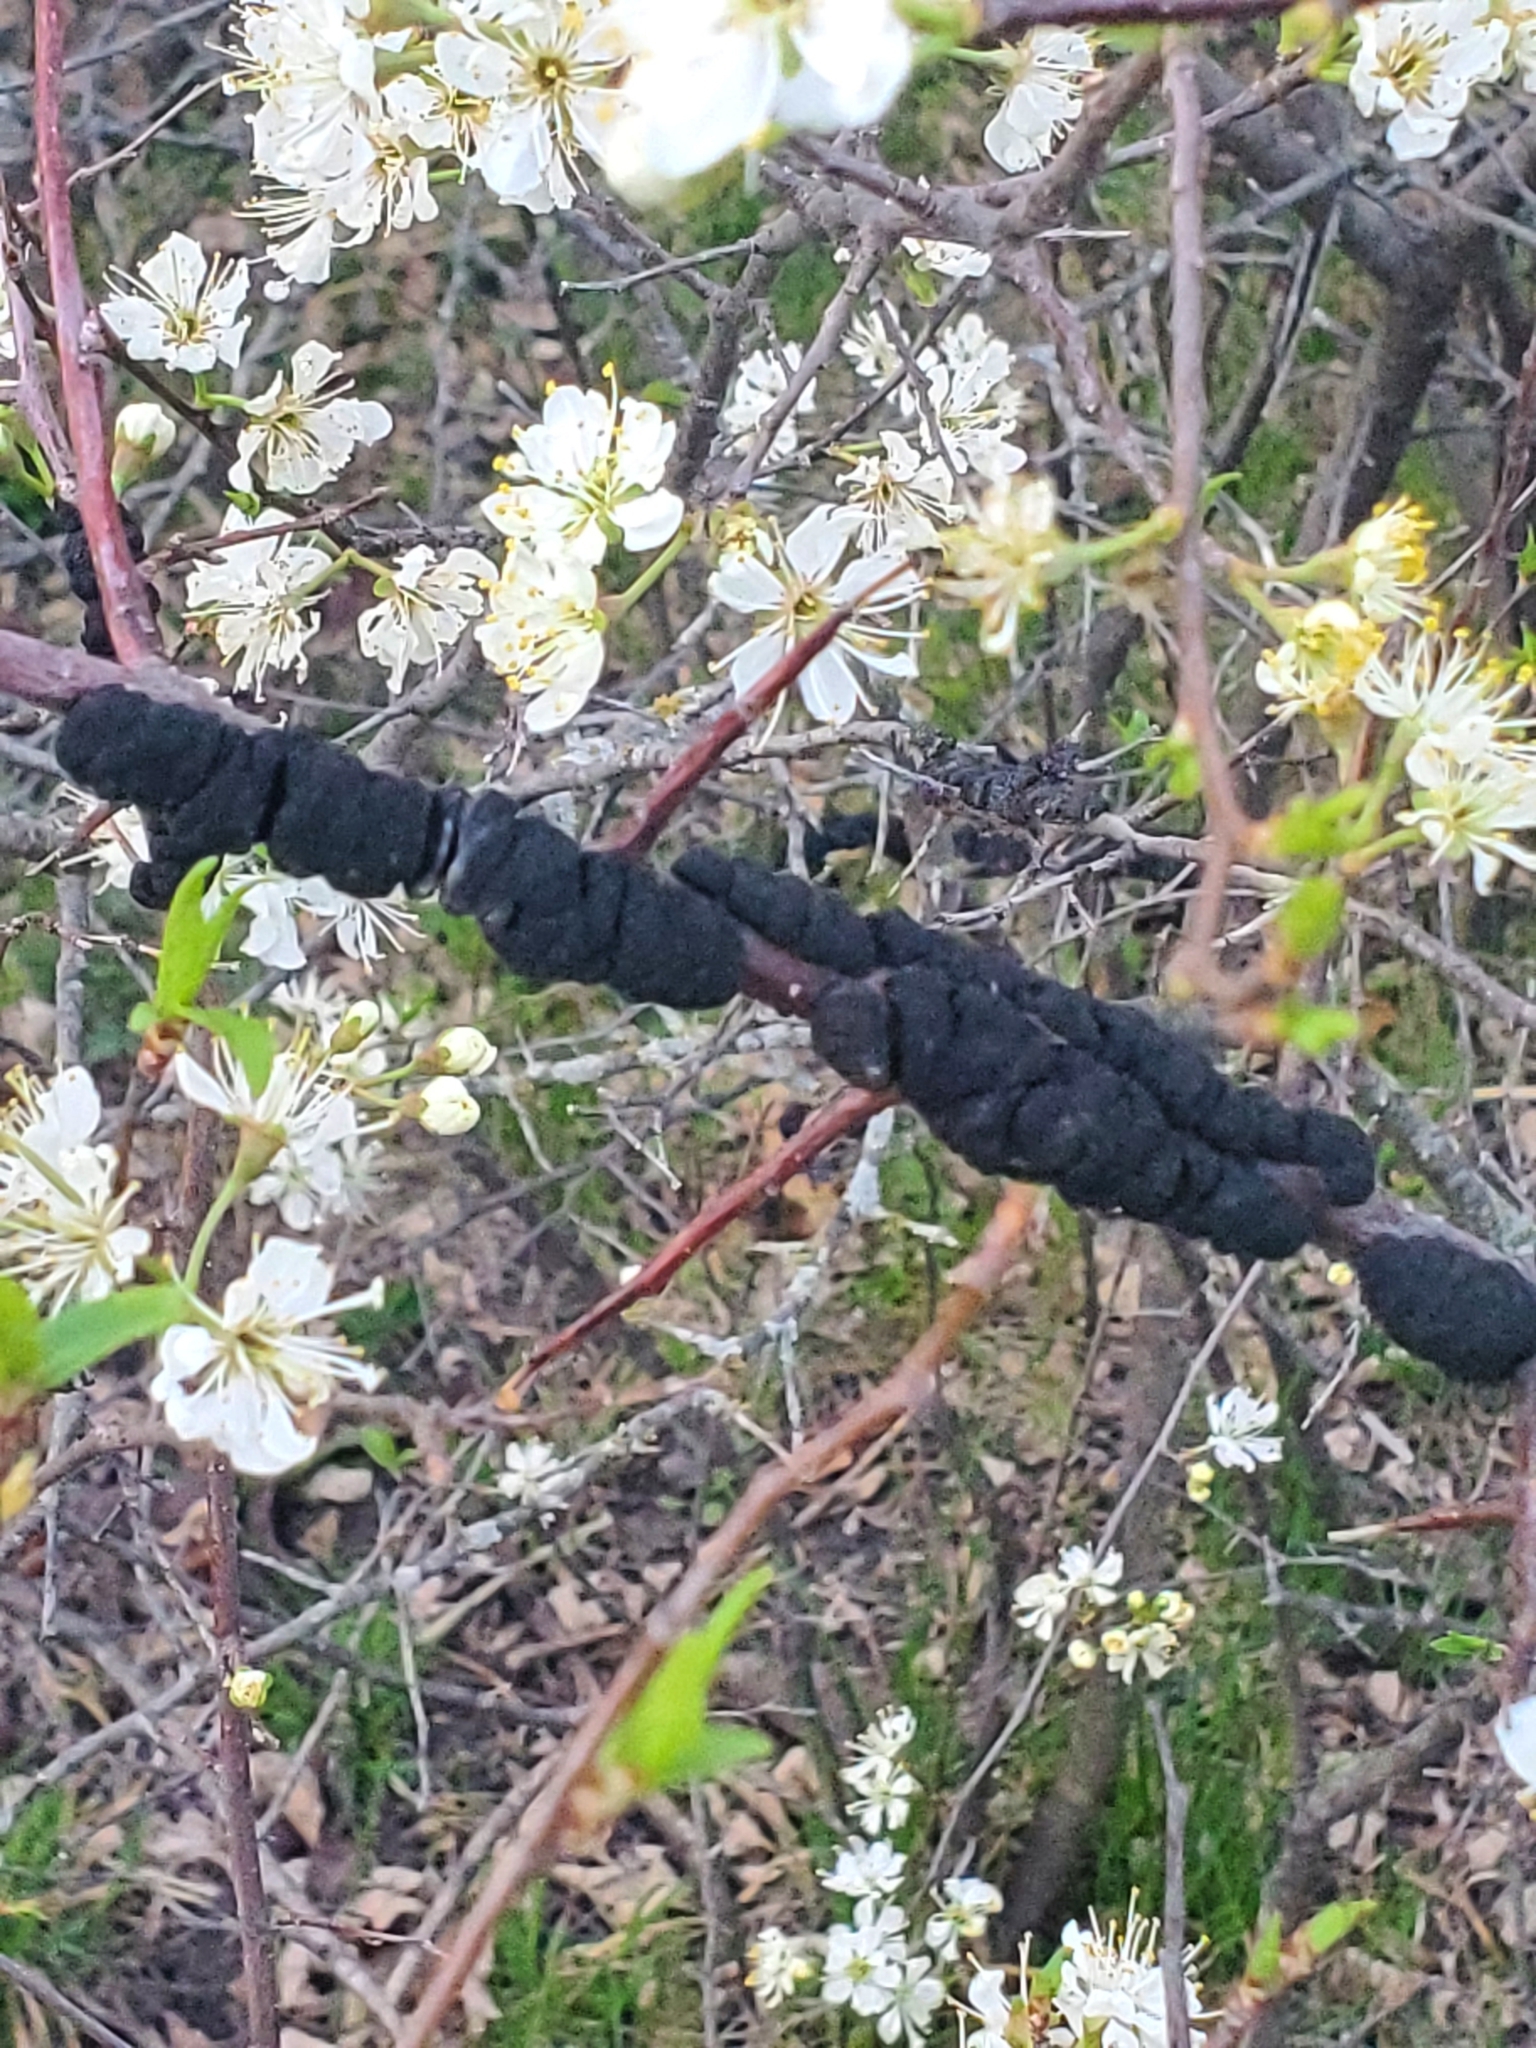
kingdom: Fungi
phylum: Ascomycota
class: Dothideomycetes
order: Venturiales
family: Venturiaceae
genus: Apiosporina
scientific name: Apiosporina morbosa
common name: Black knot
